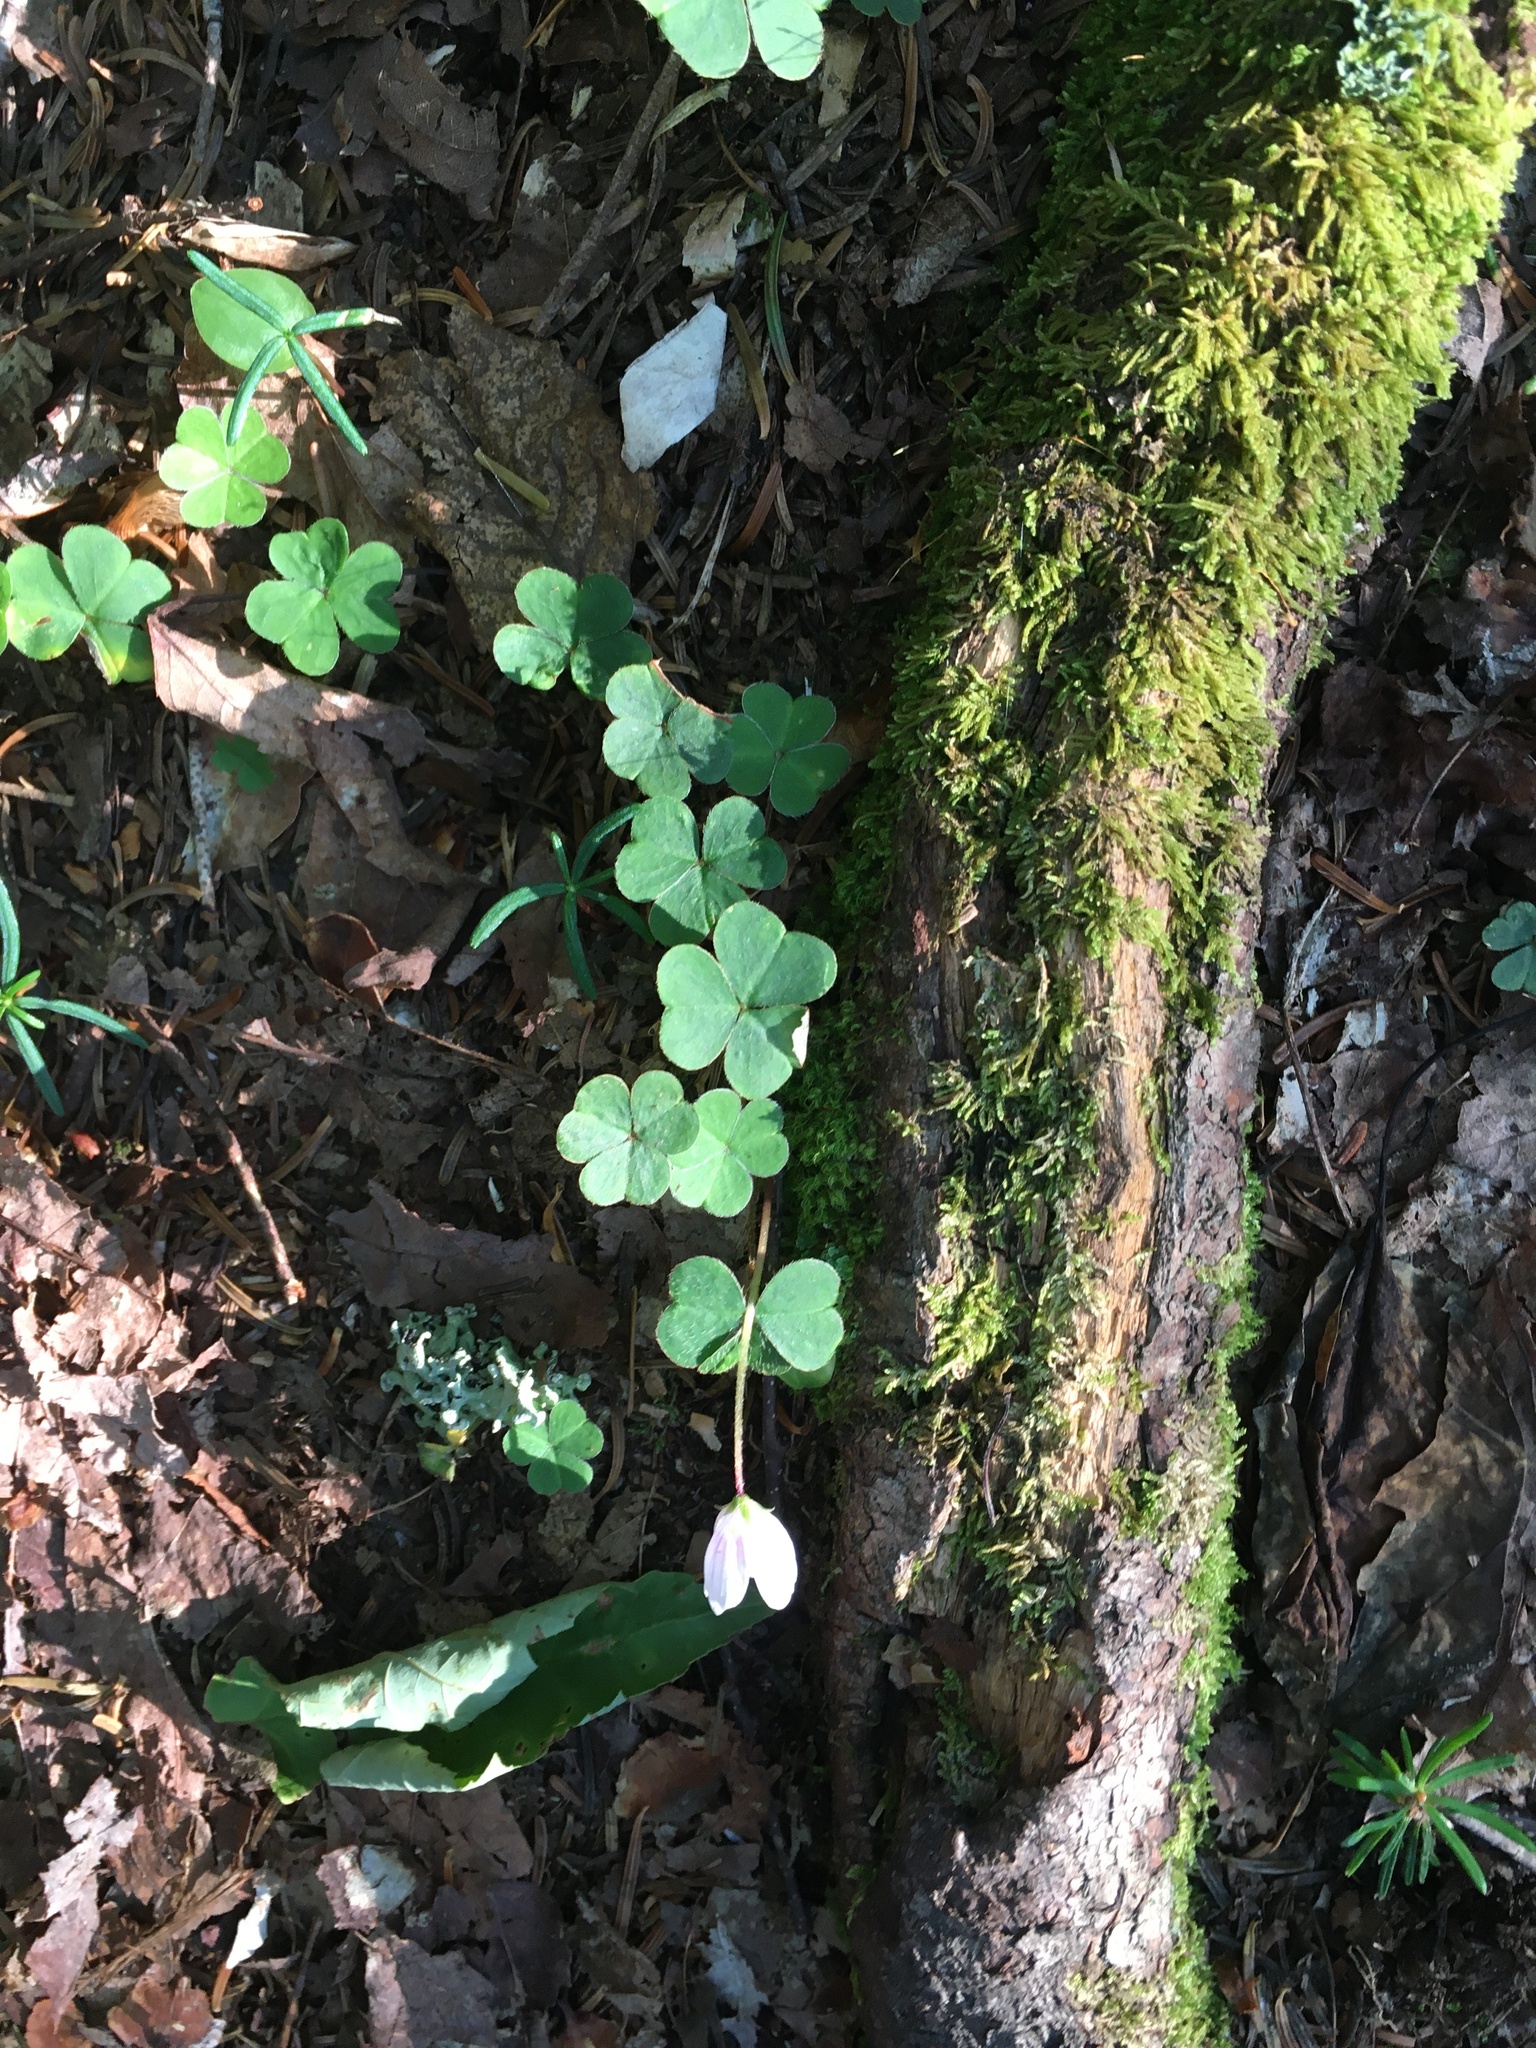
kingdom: Plantae
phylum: Tracheophyta
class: Magnoliopsida
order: Oxalidales
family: Oxalidaceae
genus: Oxalis
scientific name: Oxalis montana
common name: American wood-sorrel
